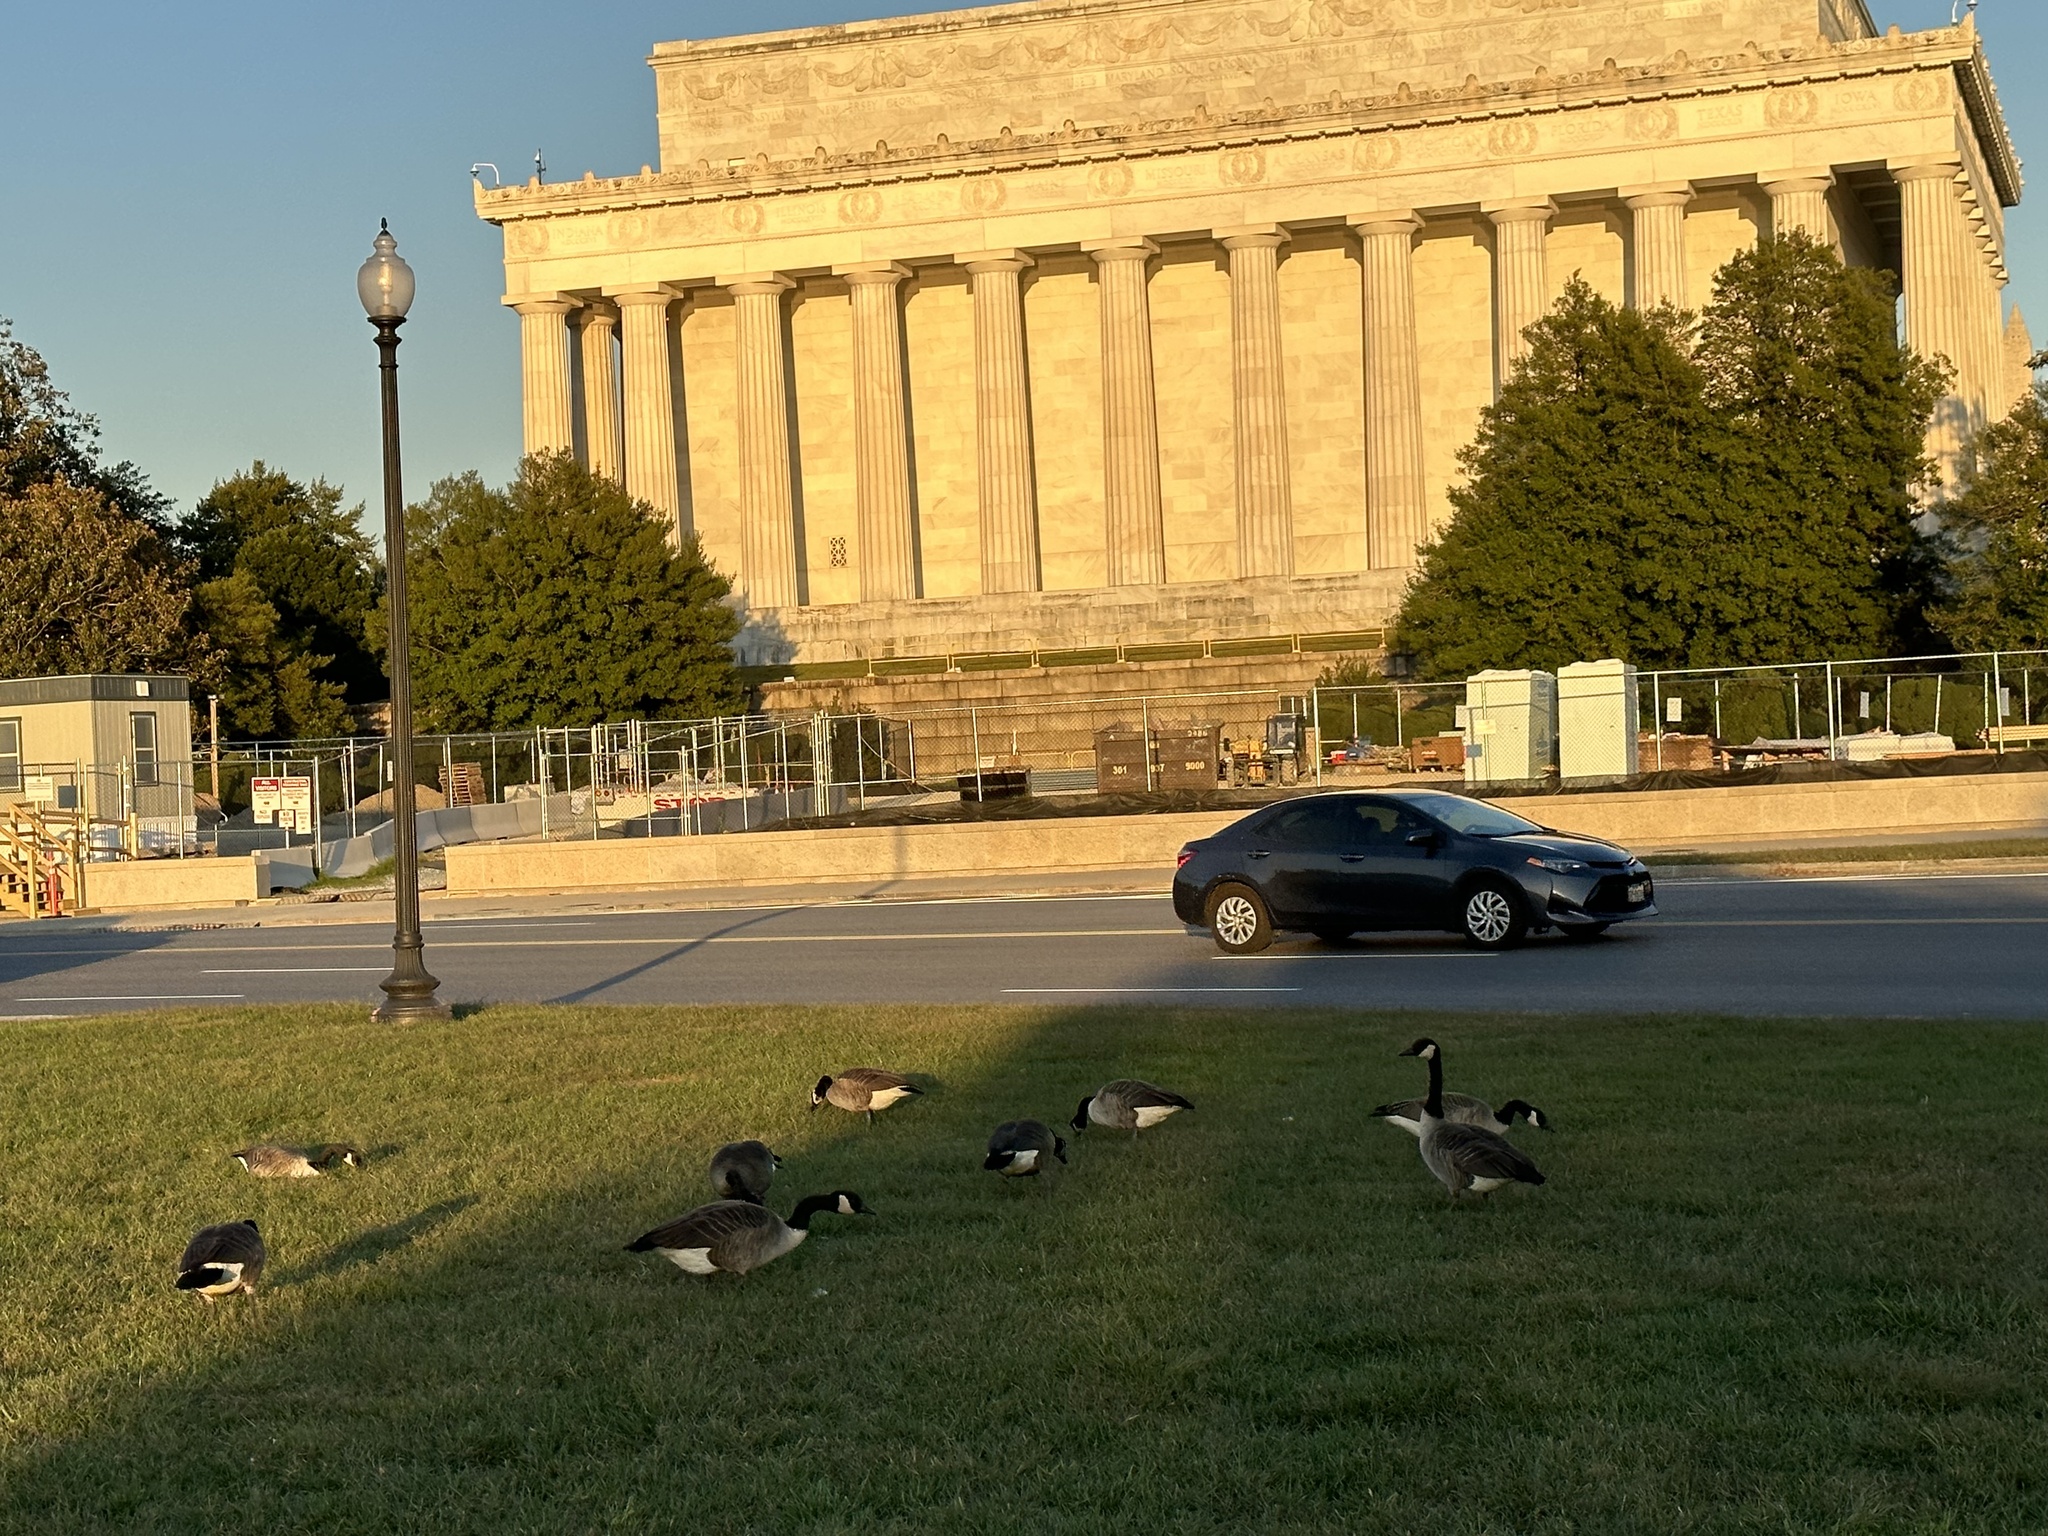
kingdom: Animalia
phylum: Chordata
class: Aves
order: Anseriformes
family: Anatidae
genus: Branta
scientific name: Branta canadensis
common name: Canada goose
